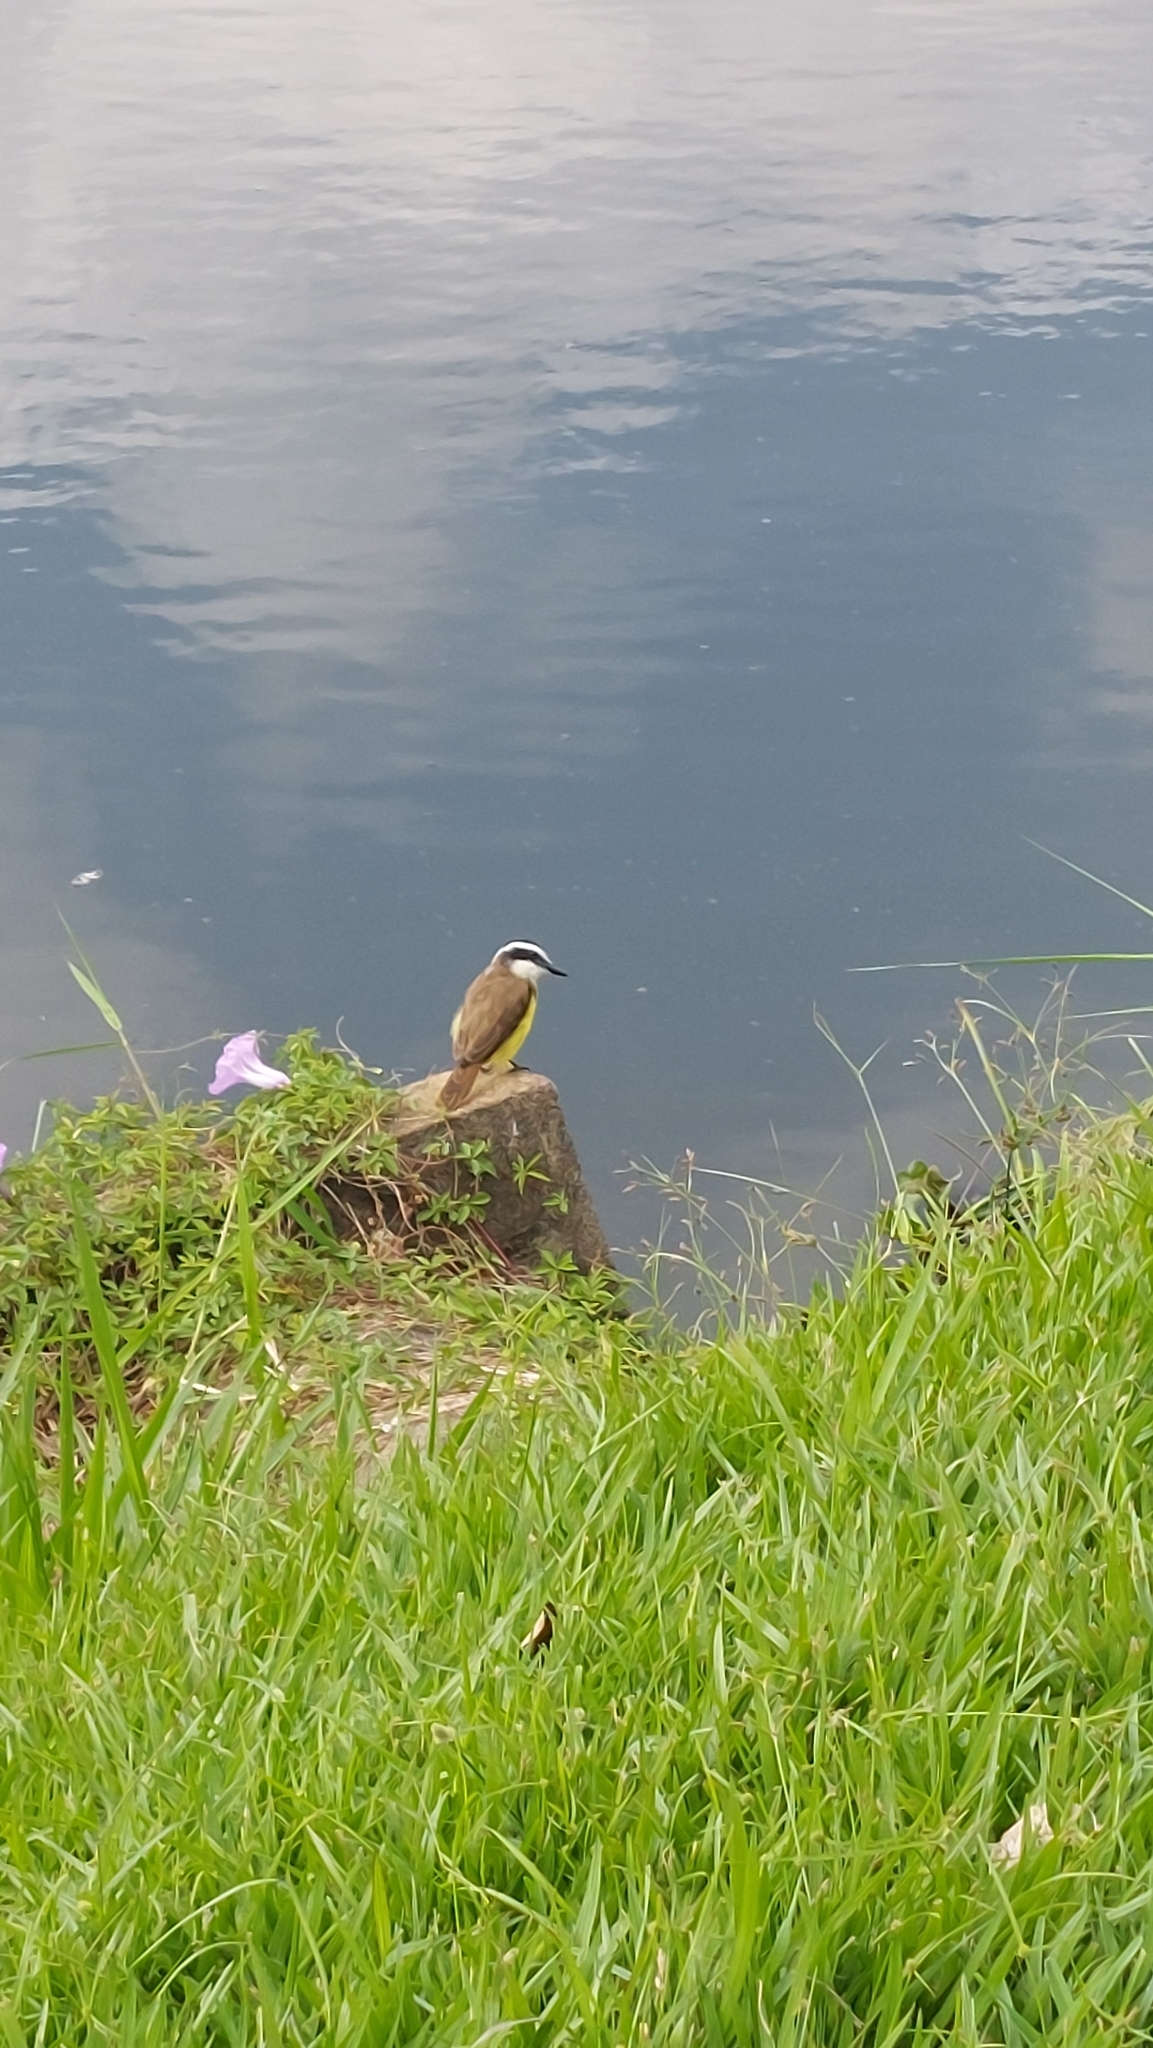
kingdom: Animalia
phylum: Chordata
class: Aves
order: Passeriformes
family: Tyrannidae
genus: Pitangus
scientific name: Pitangus sulphuratus
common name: Great kiskadee
